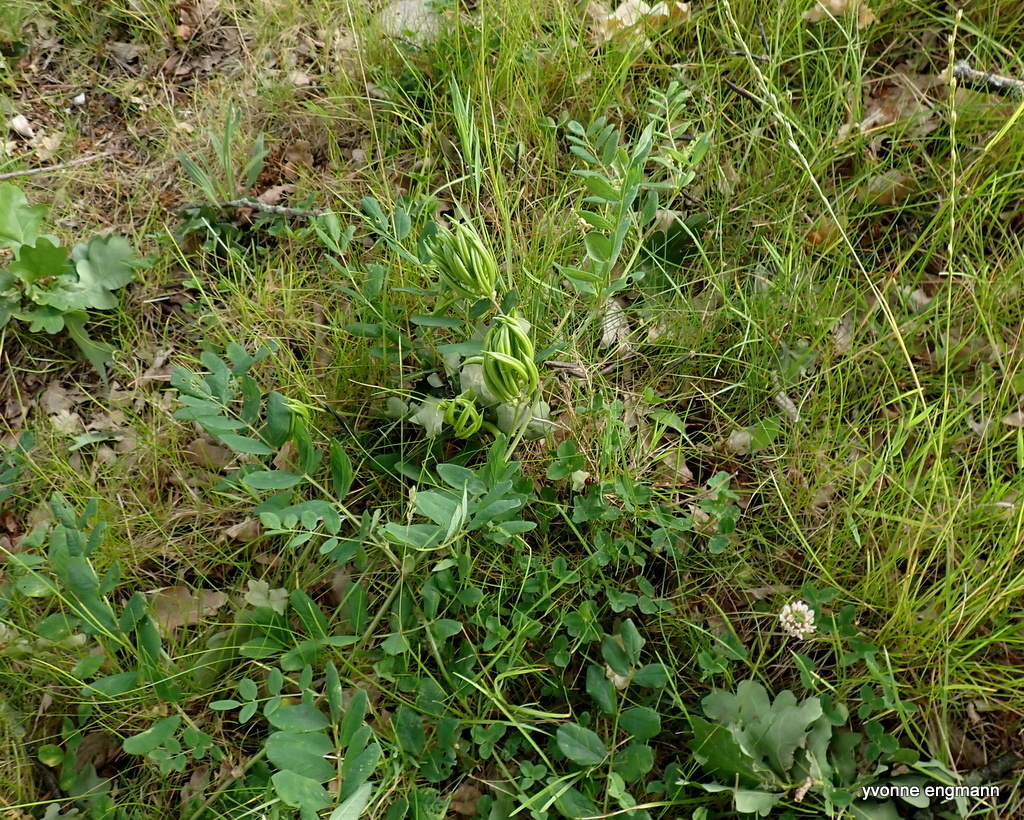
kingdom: Plantae
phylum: Tracheophyta
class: Magnoliopsida
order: Fabales
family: Fabaceae
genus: Astragalus
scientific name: Astragalus glycyphyllos
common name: Wild liquorice
